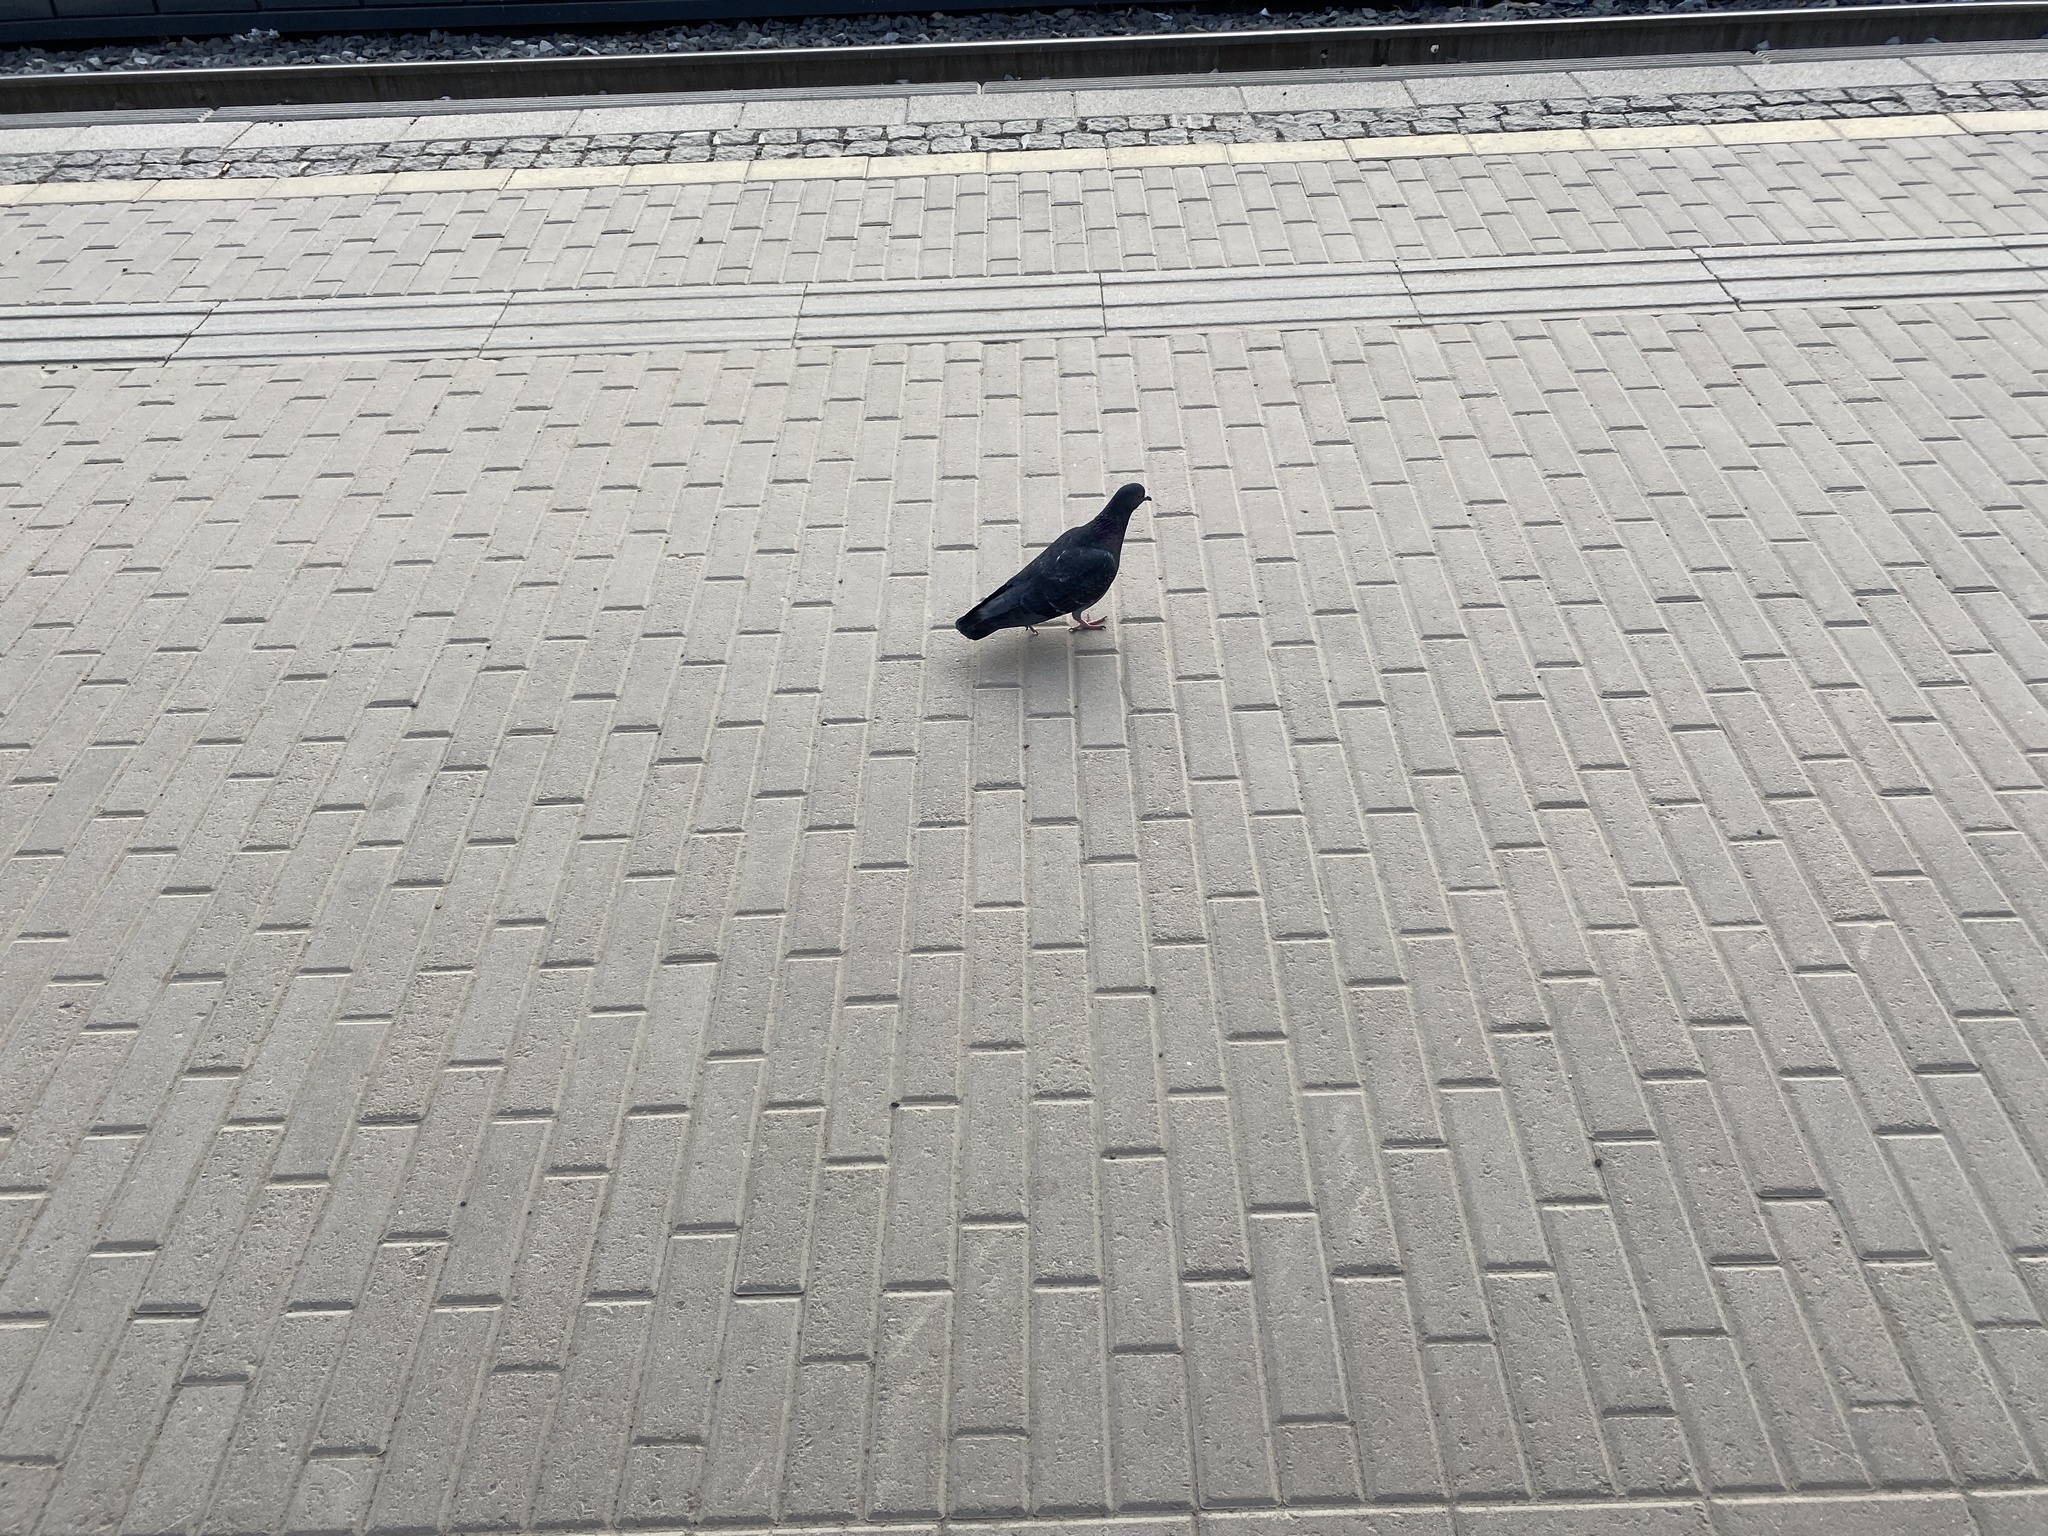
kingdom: Animalia
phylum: Chordata
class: Aves
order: Columbiformes
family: Columbidae
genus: Columba
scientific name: Columba livia
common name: Rock pigeon
